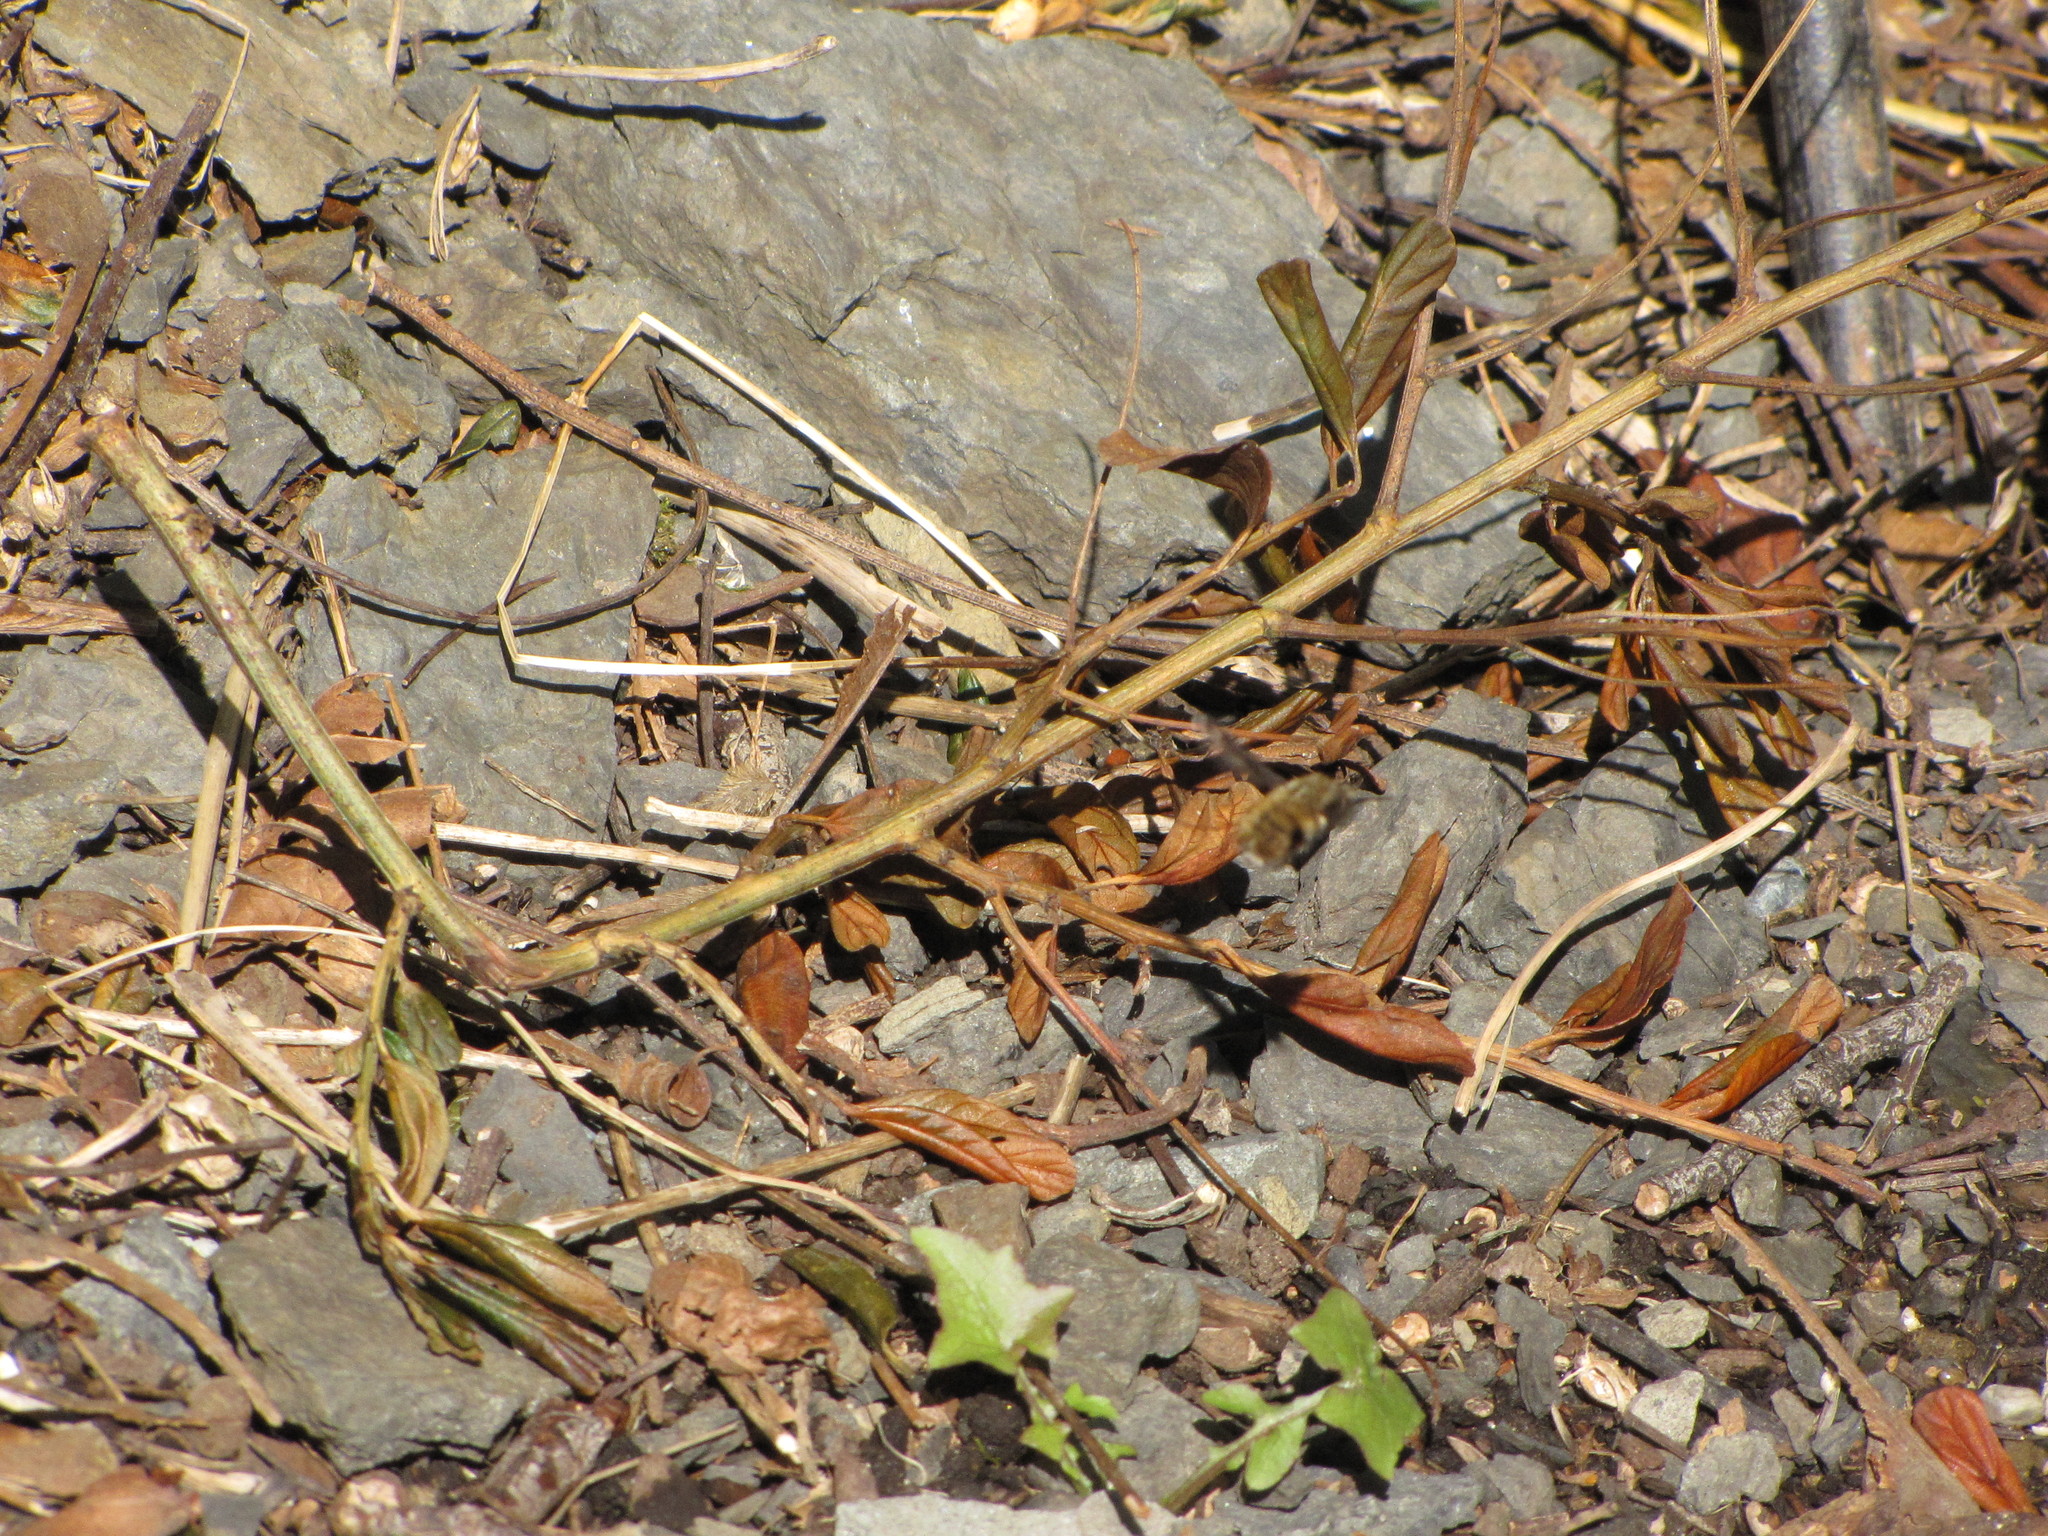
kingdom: Animalia
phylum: Arthropoda
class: Insecta
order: Diptera
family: Bombyliidae
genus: Bombylius
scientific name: Bombylius major
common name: Bee fly
